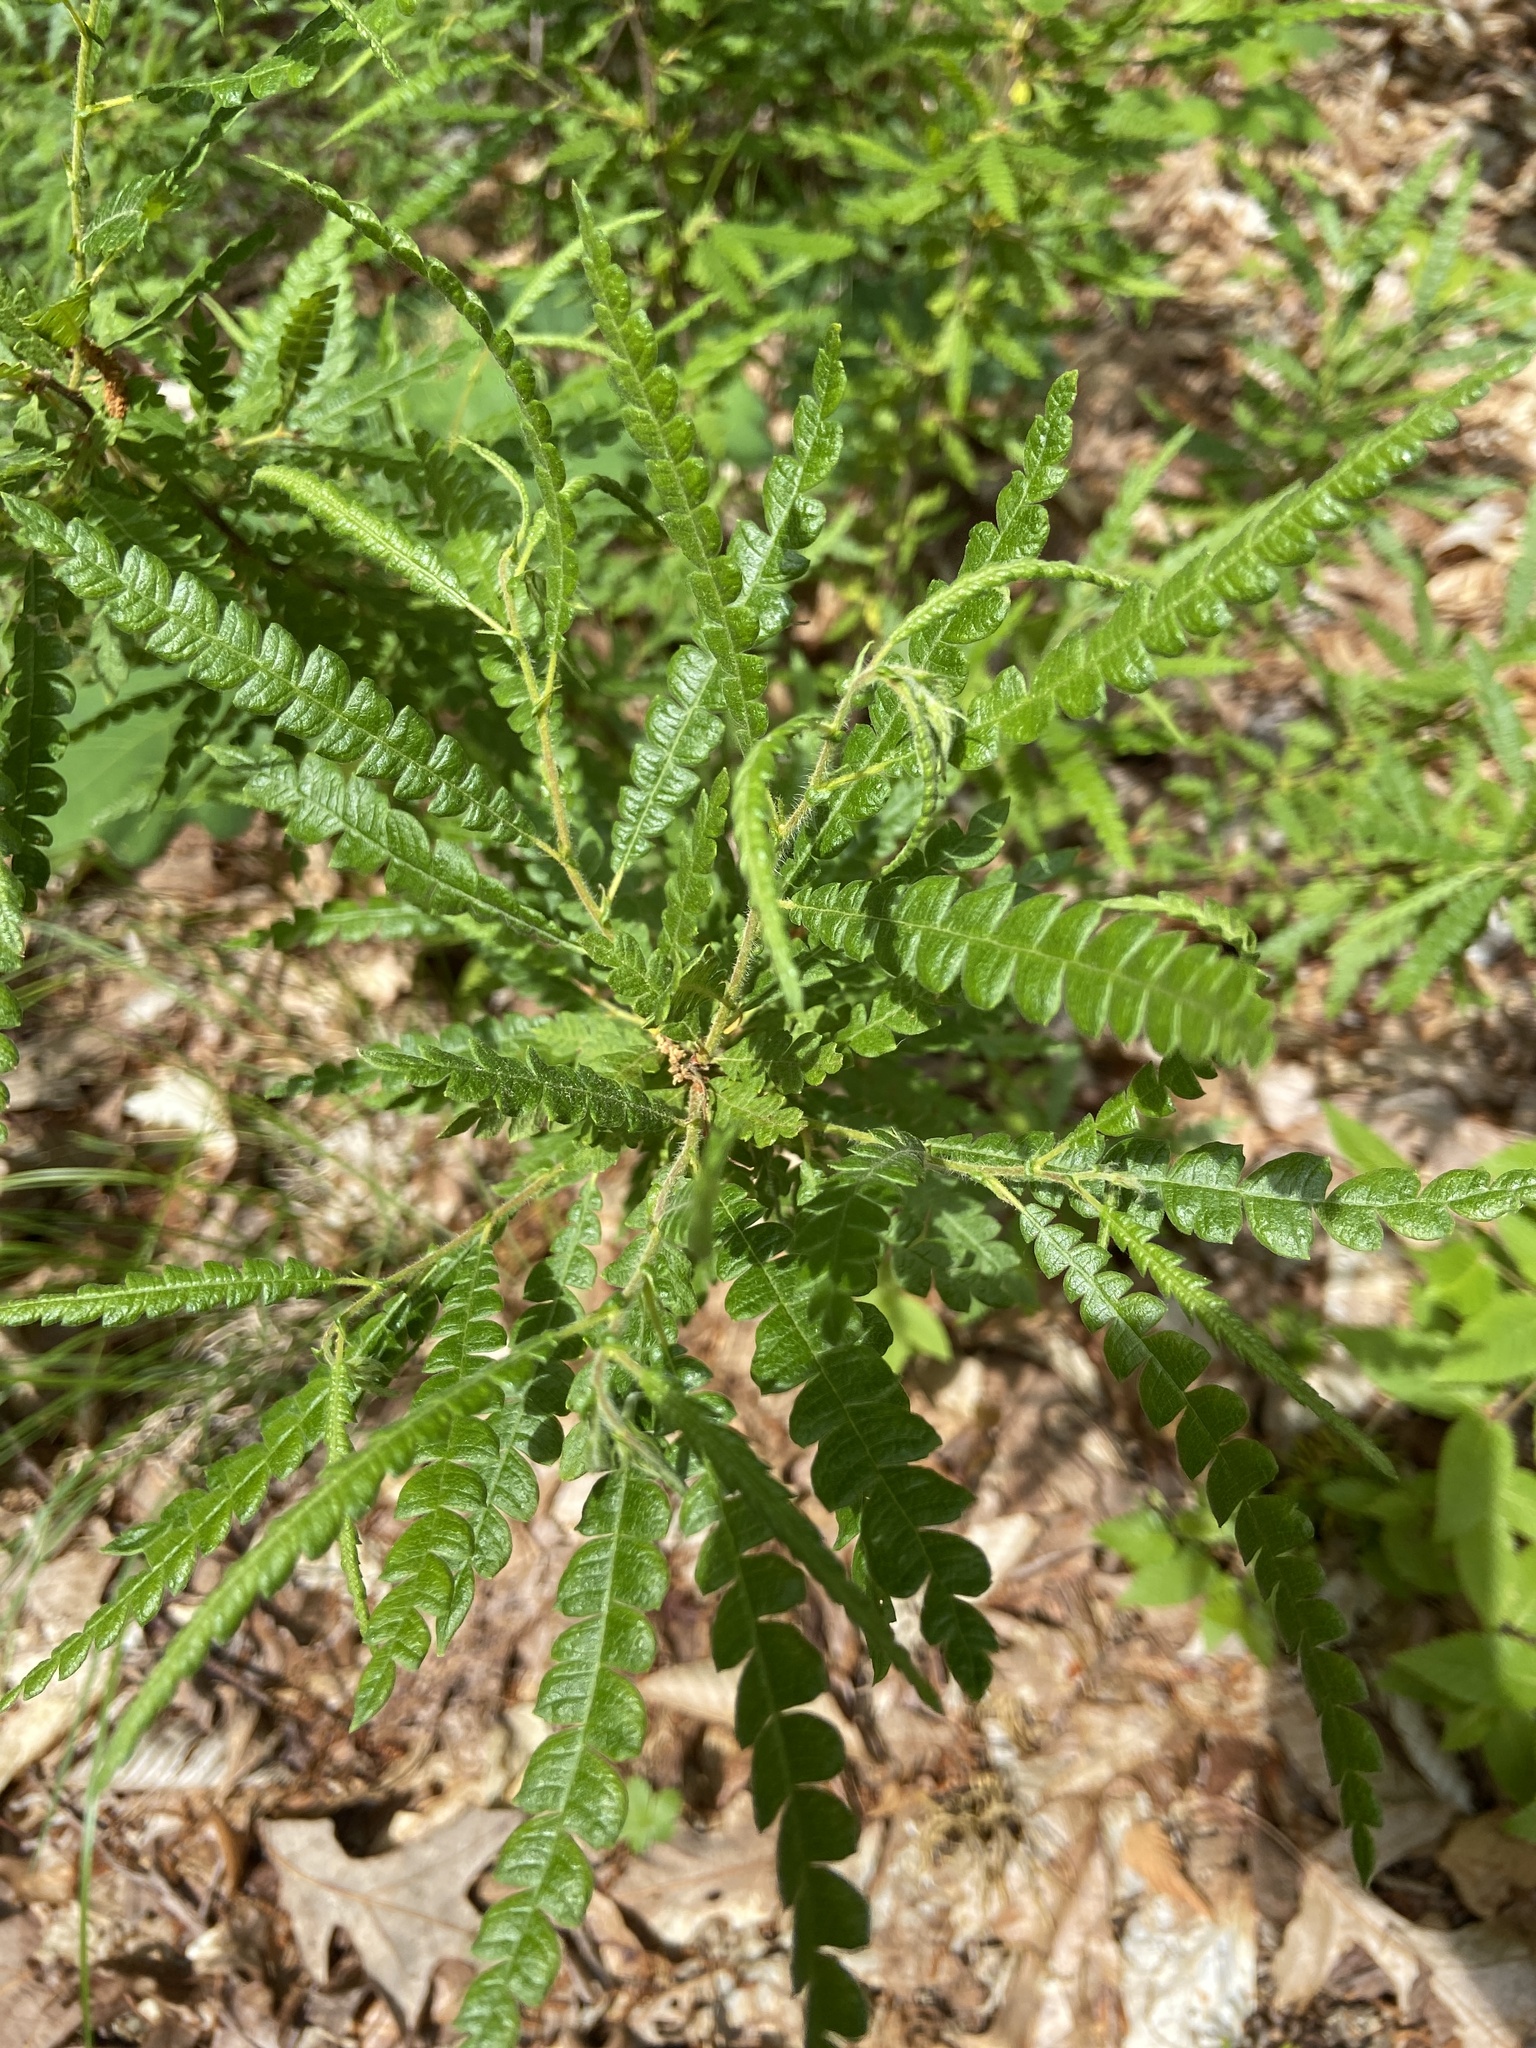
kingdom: Plantae
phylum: Tracheophyta
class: Magnoliopsida
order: Fagales
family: Myricaceae
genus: Comptonia
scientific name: Comptonia peregrina
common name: Sweet-fern
